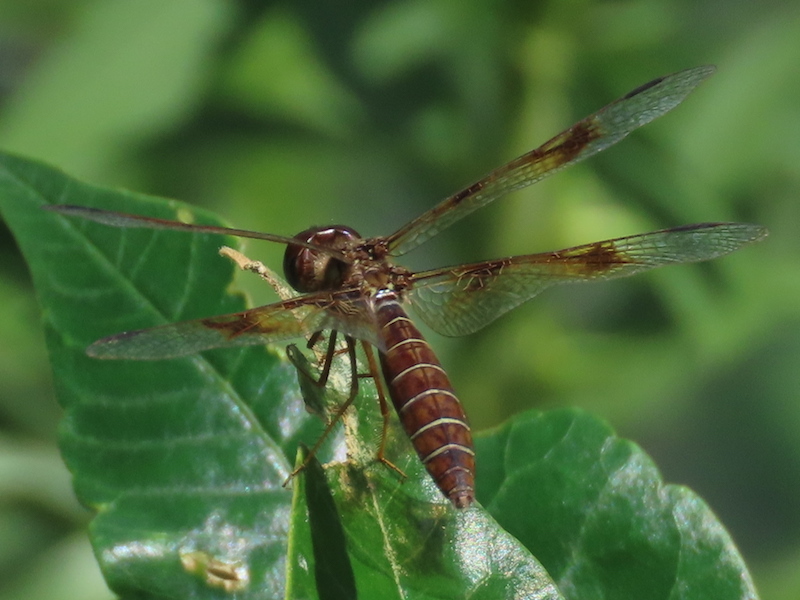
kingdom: Animalia
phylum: Arthropoda
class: Insecta
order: Odonata
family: Libellulidae
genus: Perithemis
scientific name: Perithemis tenera
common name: Eastern amberwing
